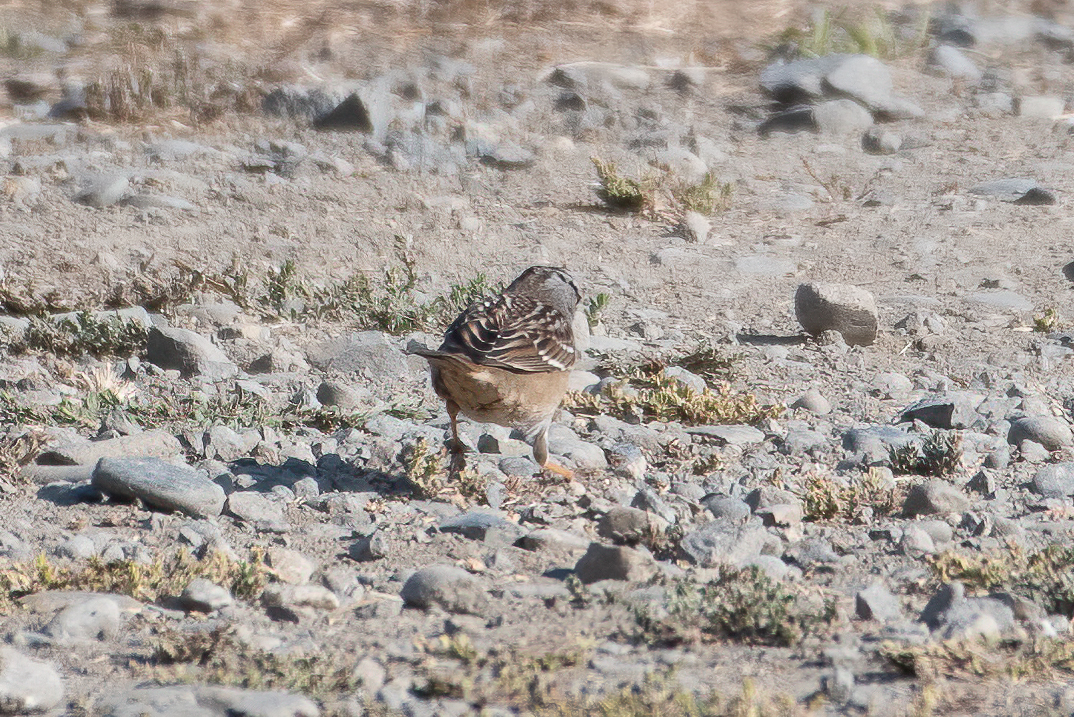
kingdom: Animalia
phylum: Chordata
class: Aves
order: Passeriformes
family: Passerellidae
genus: Zonotrichia
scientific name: Zonotrichia leucophrys
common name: White-crowned sparrow
